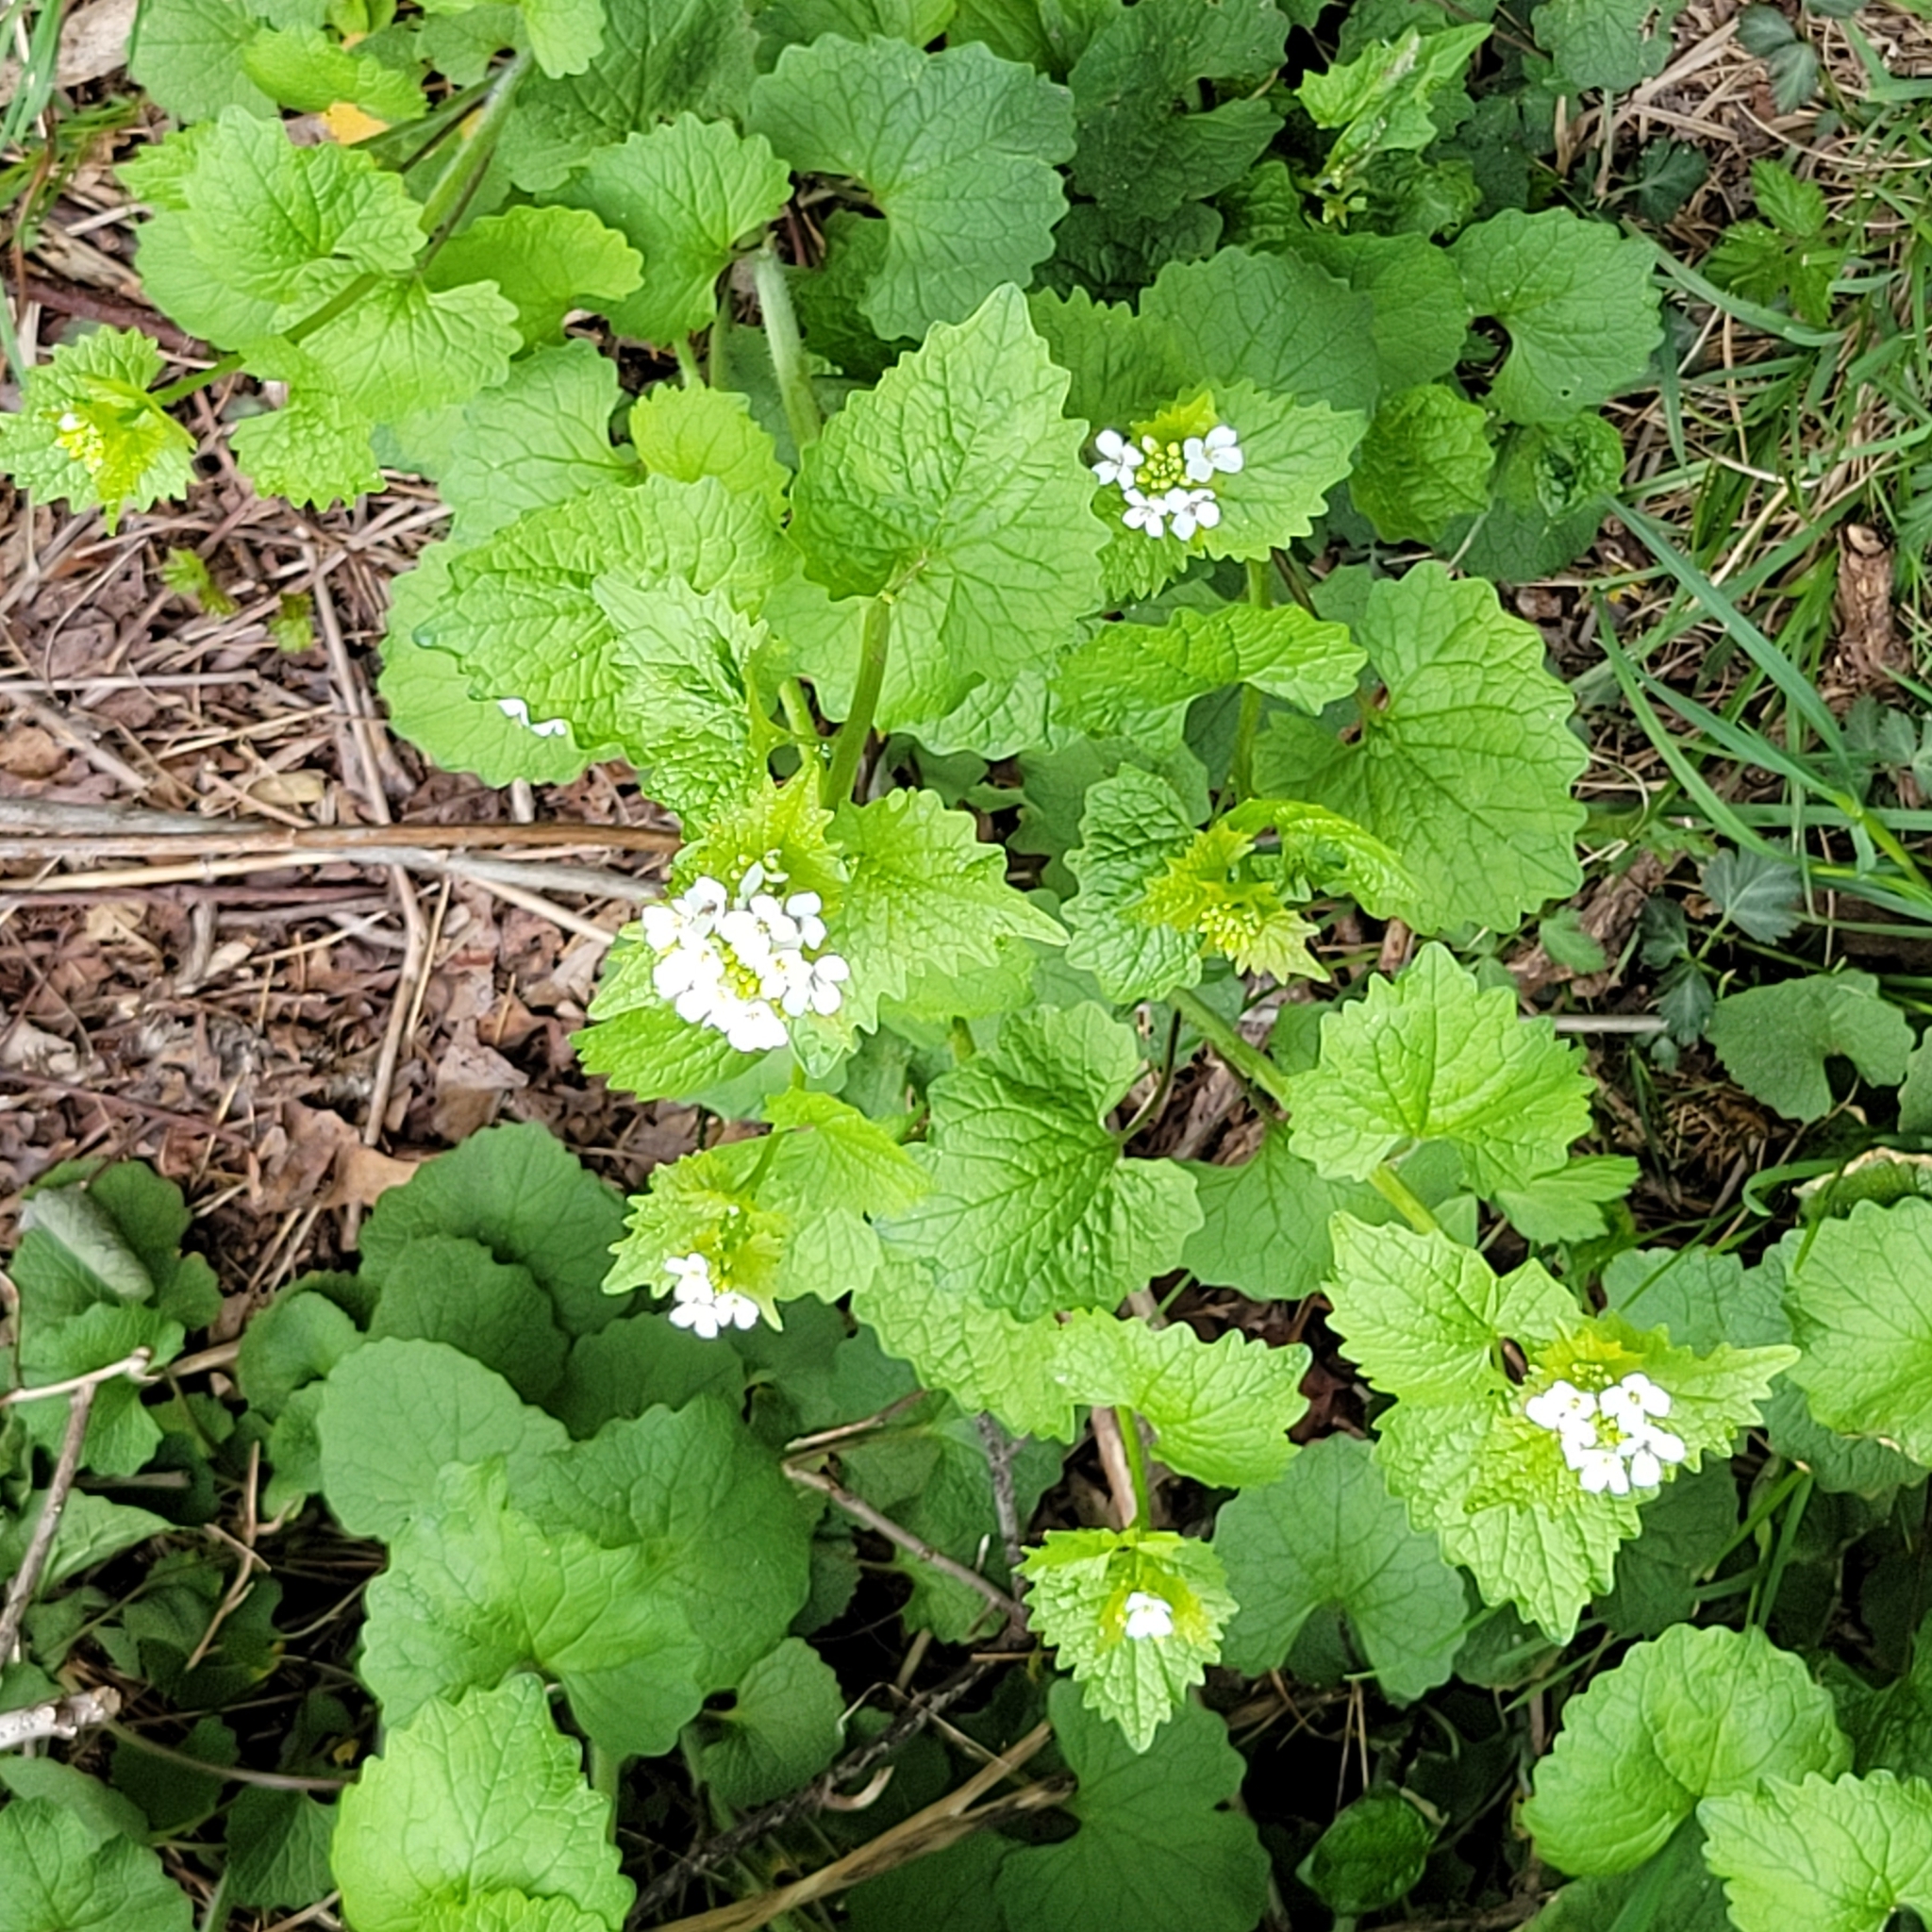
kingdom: Plantae
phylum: Tracheophyta
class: Magnoliopsida
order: Brassicales
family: Brassicaceae
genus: Alliaria
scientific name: Alliaria petiolata
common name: Garlic mustard
